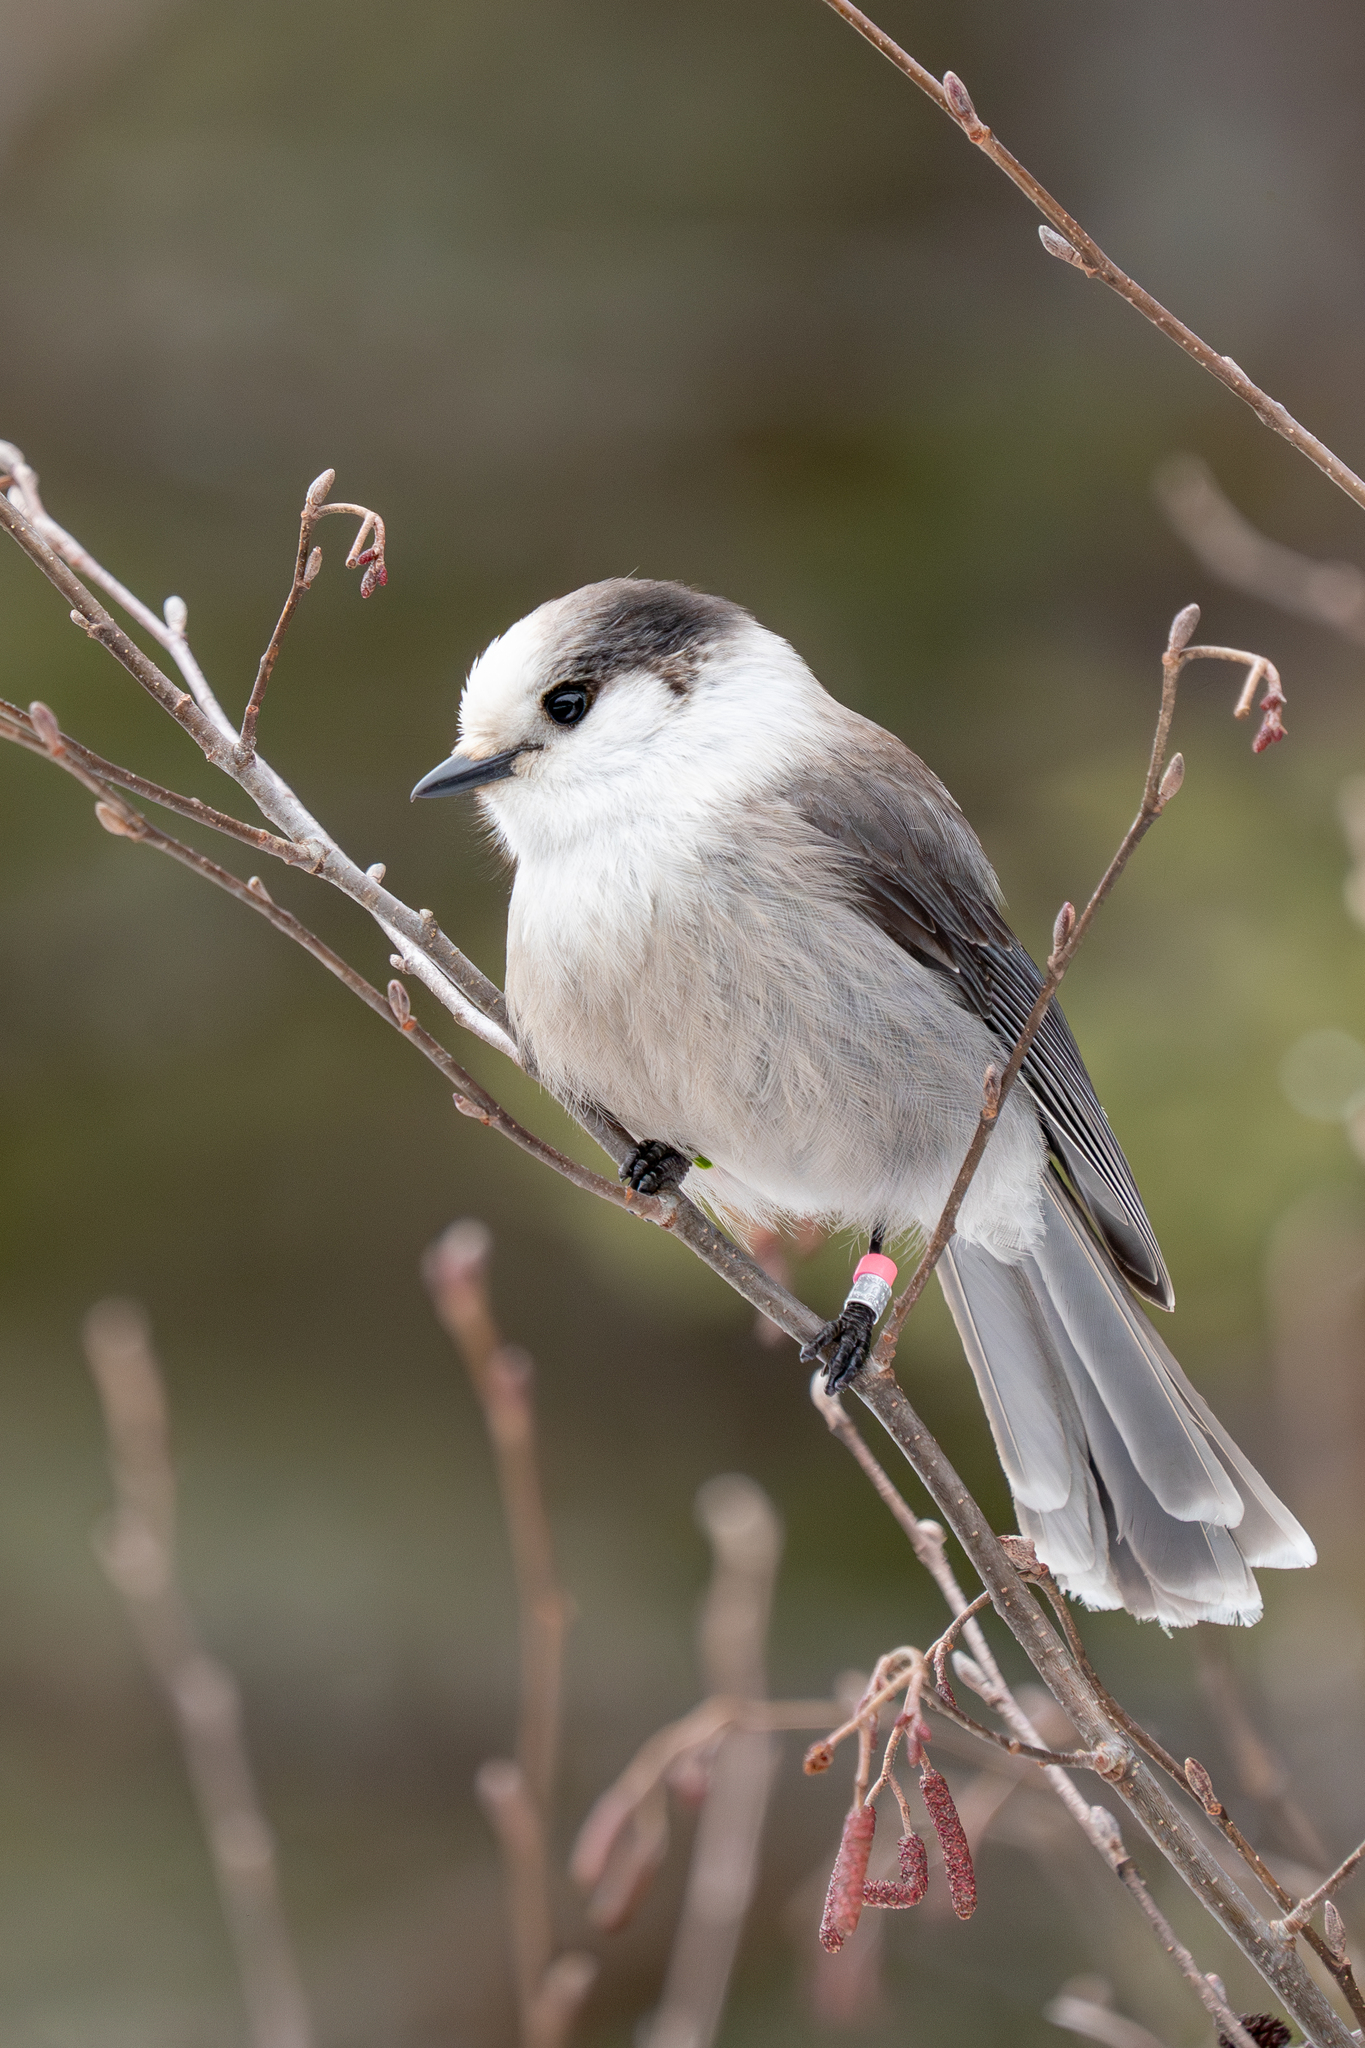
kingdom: Animalia
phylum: Chordata
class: Aves
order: Passeriformes
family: Corvidae
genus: Perisoreus
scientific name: Perisoreus canadensis
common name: Gray jay
